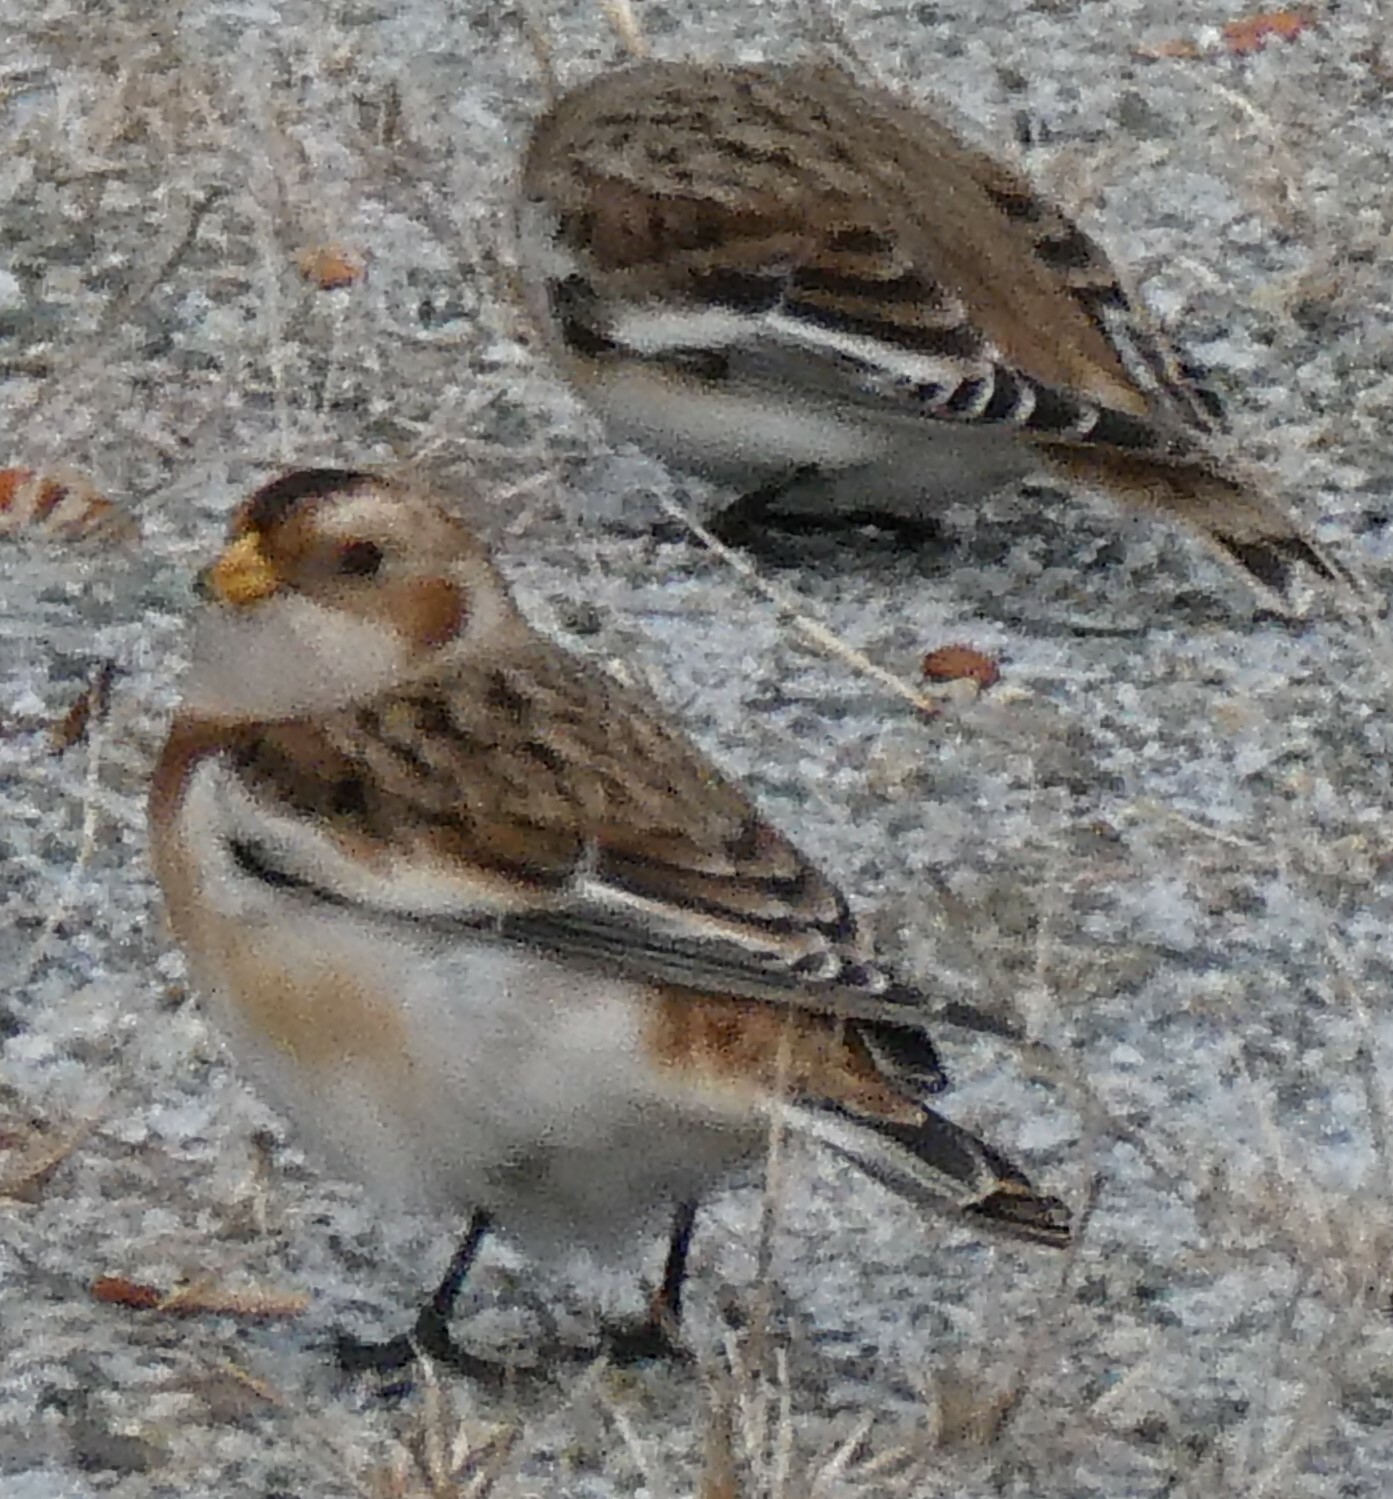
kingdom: Animalia
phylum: Chordata
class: Aves
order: Passeriformes
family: Calcariidae
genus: Plectrophenax
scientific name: Plectrophenax nivalis
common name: Snow bunting
